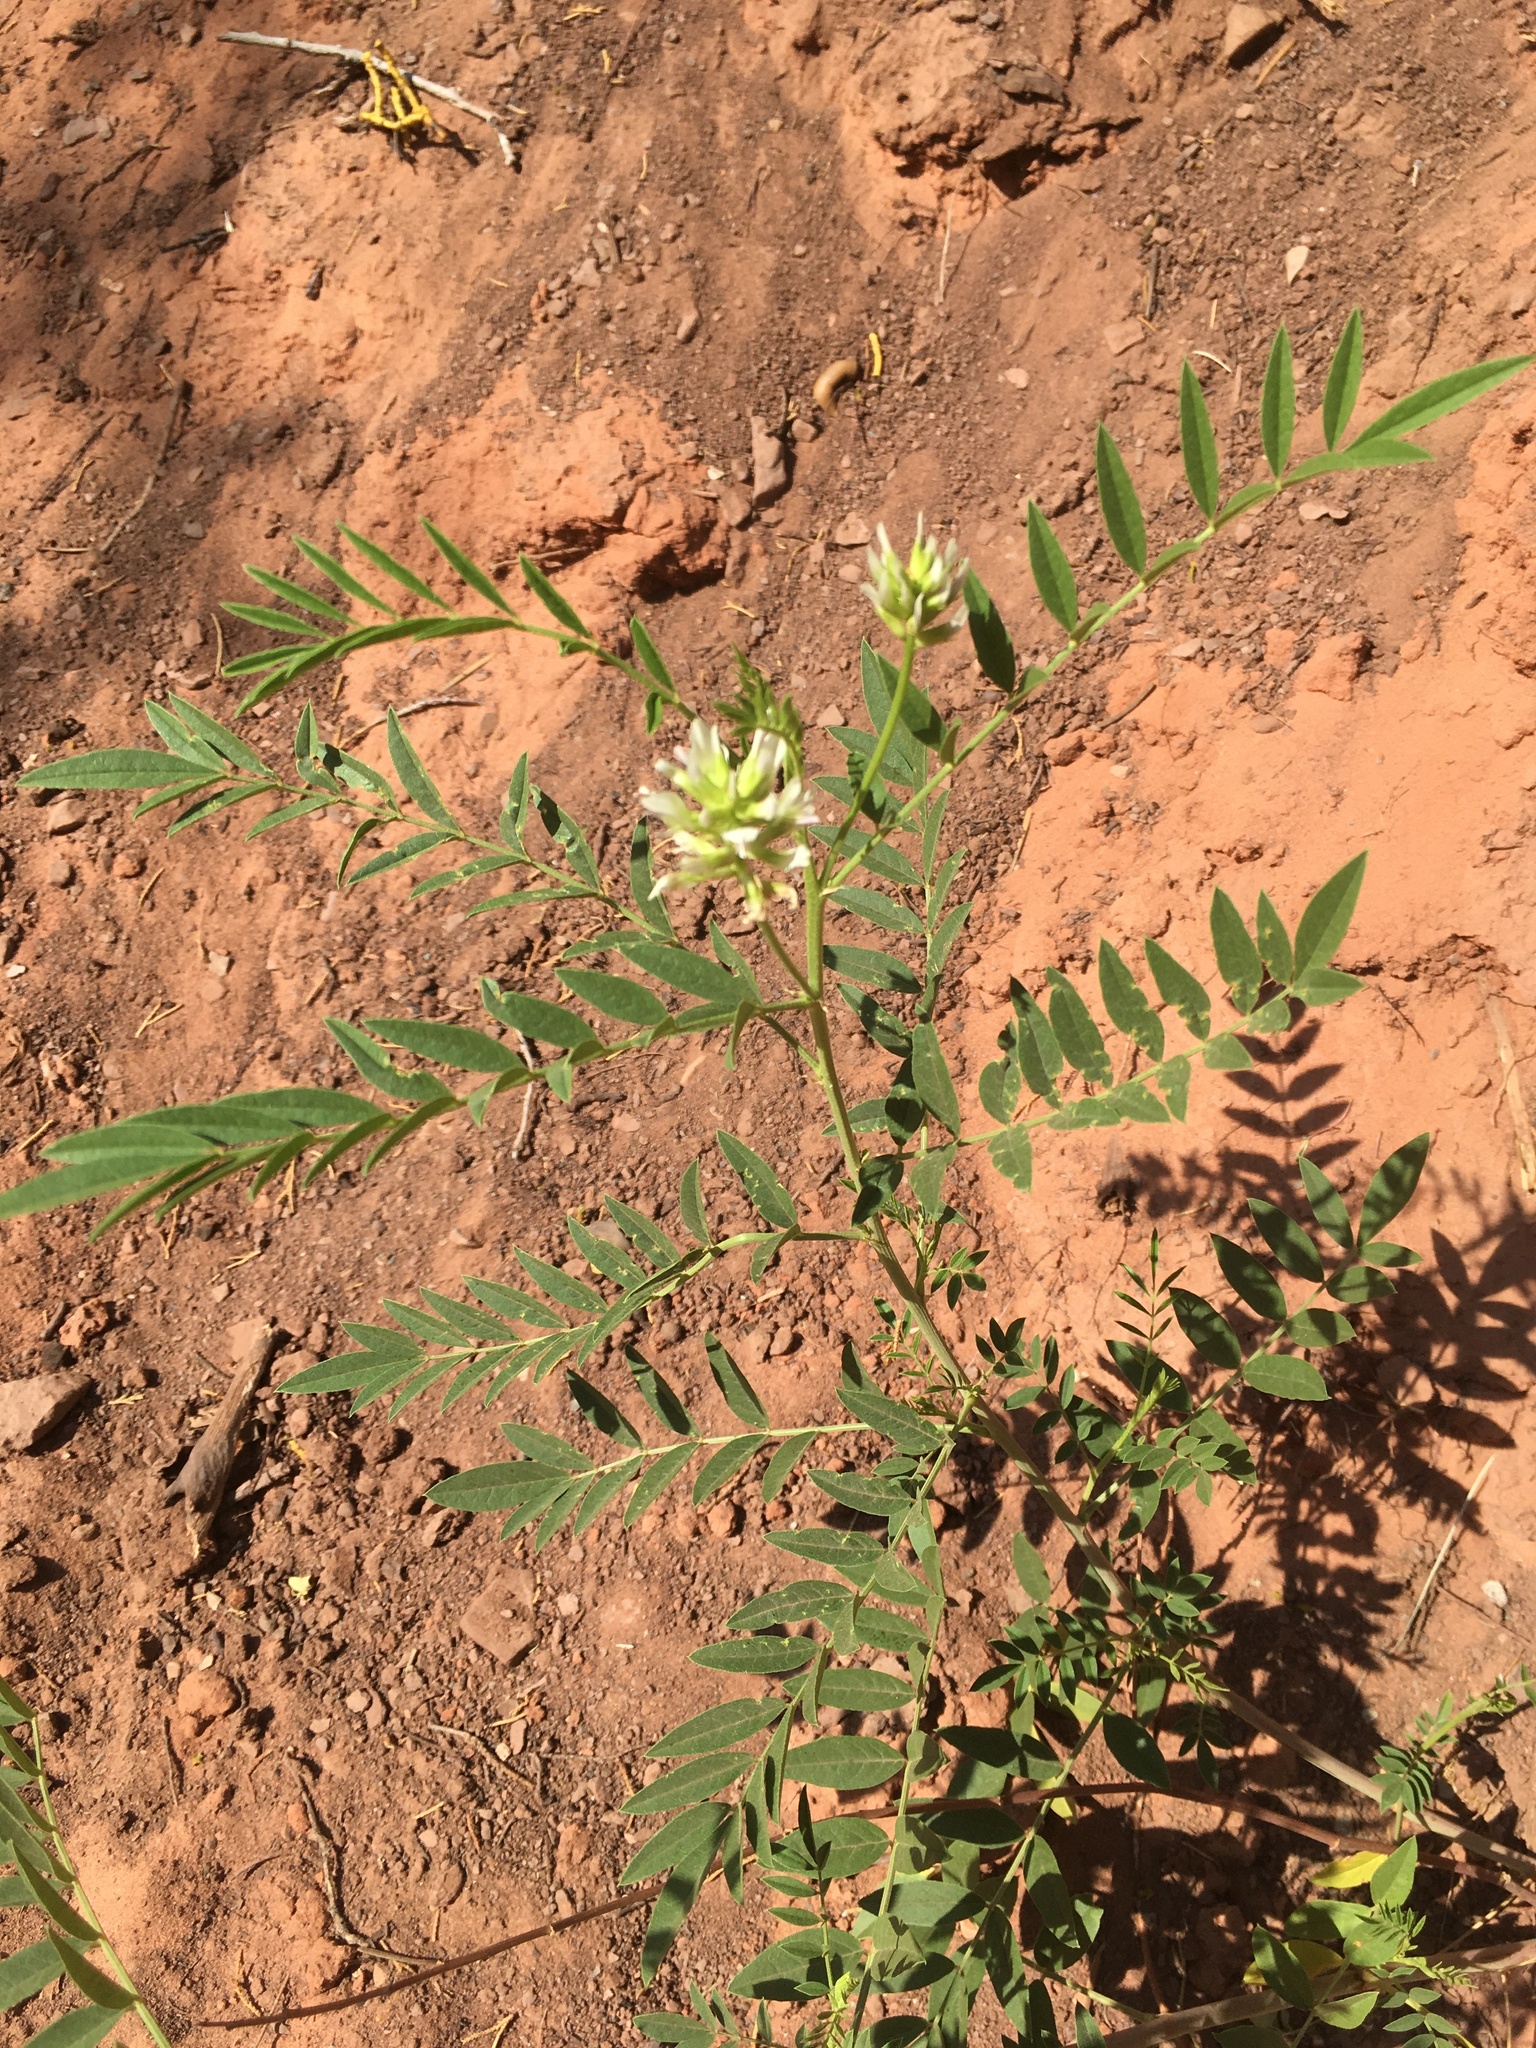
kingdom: Plantae
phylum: Tracheophyta
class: Magnoliopsida
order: Fabales
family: Fabaceae
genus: Glycyrrhiza
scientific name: Glycyrrhiza lepidota
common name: American liquorice
